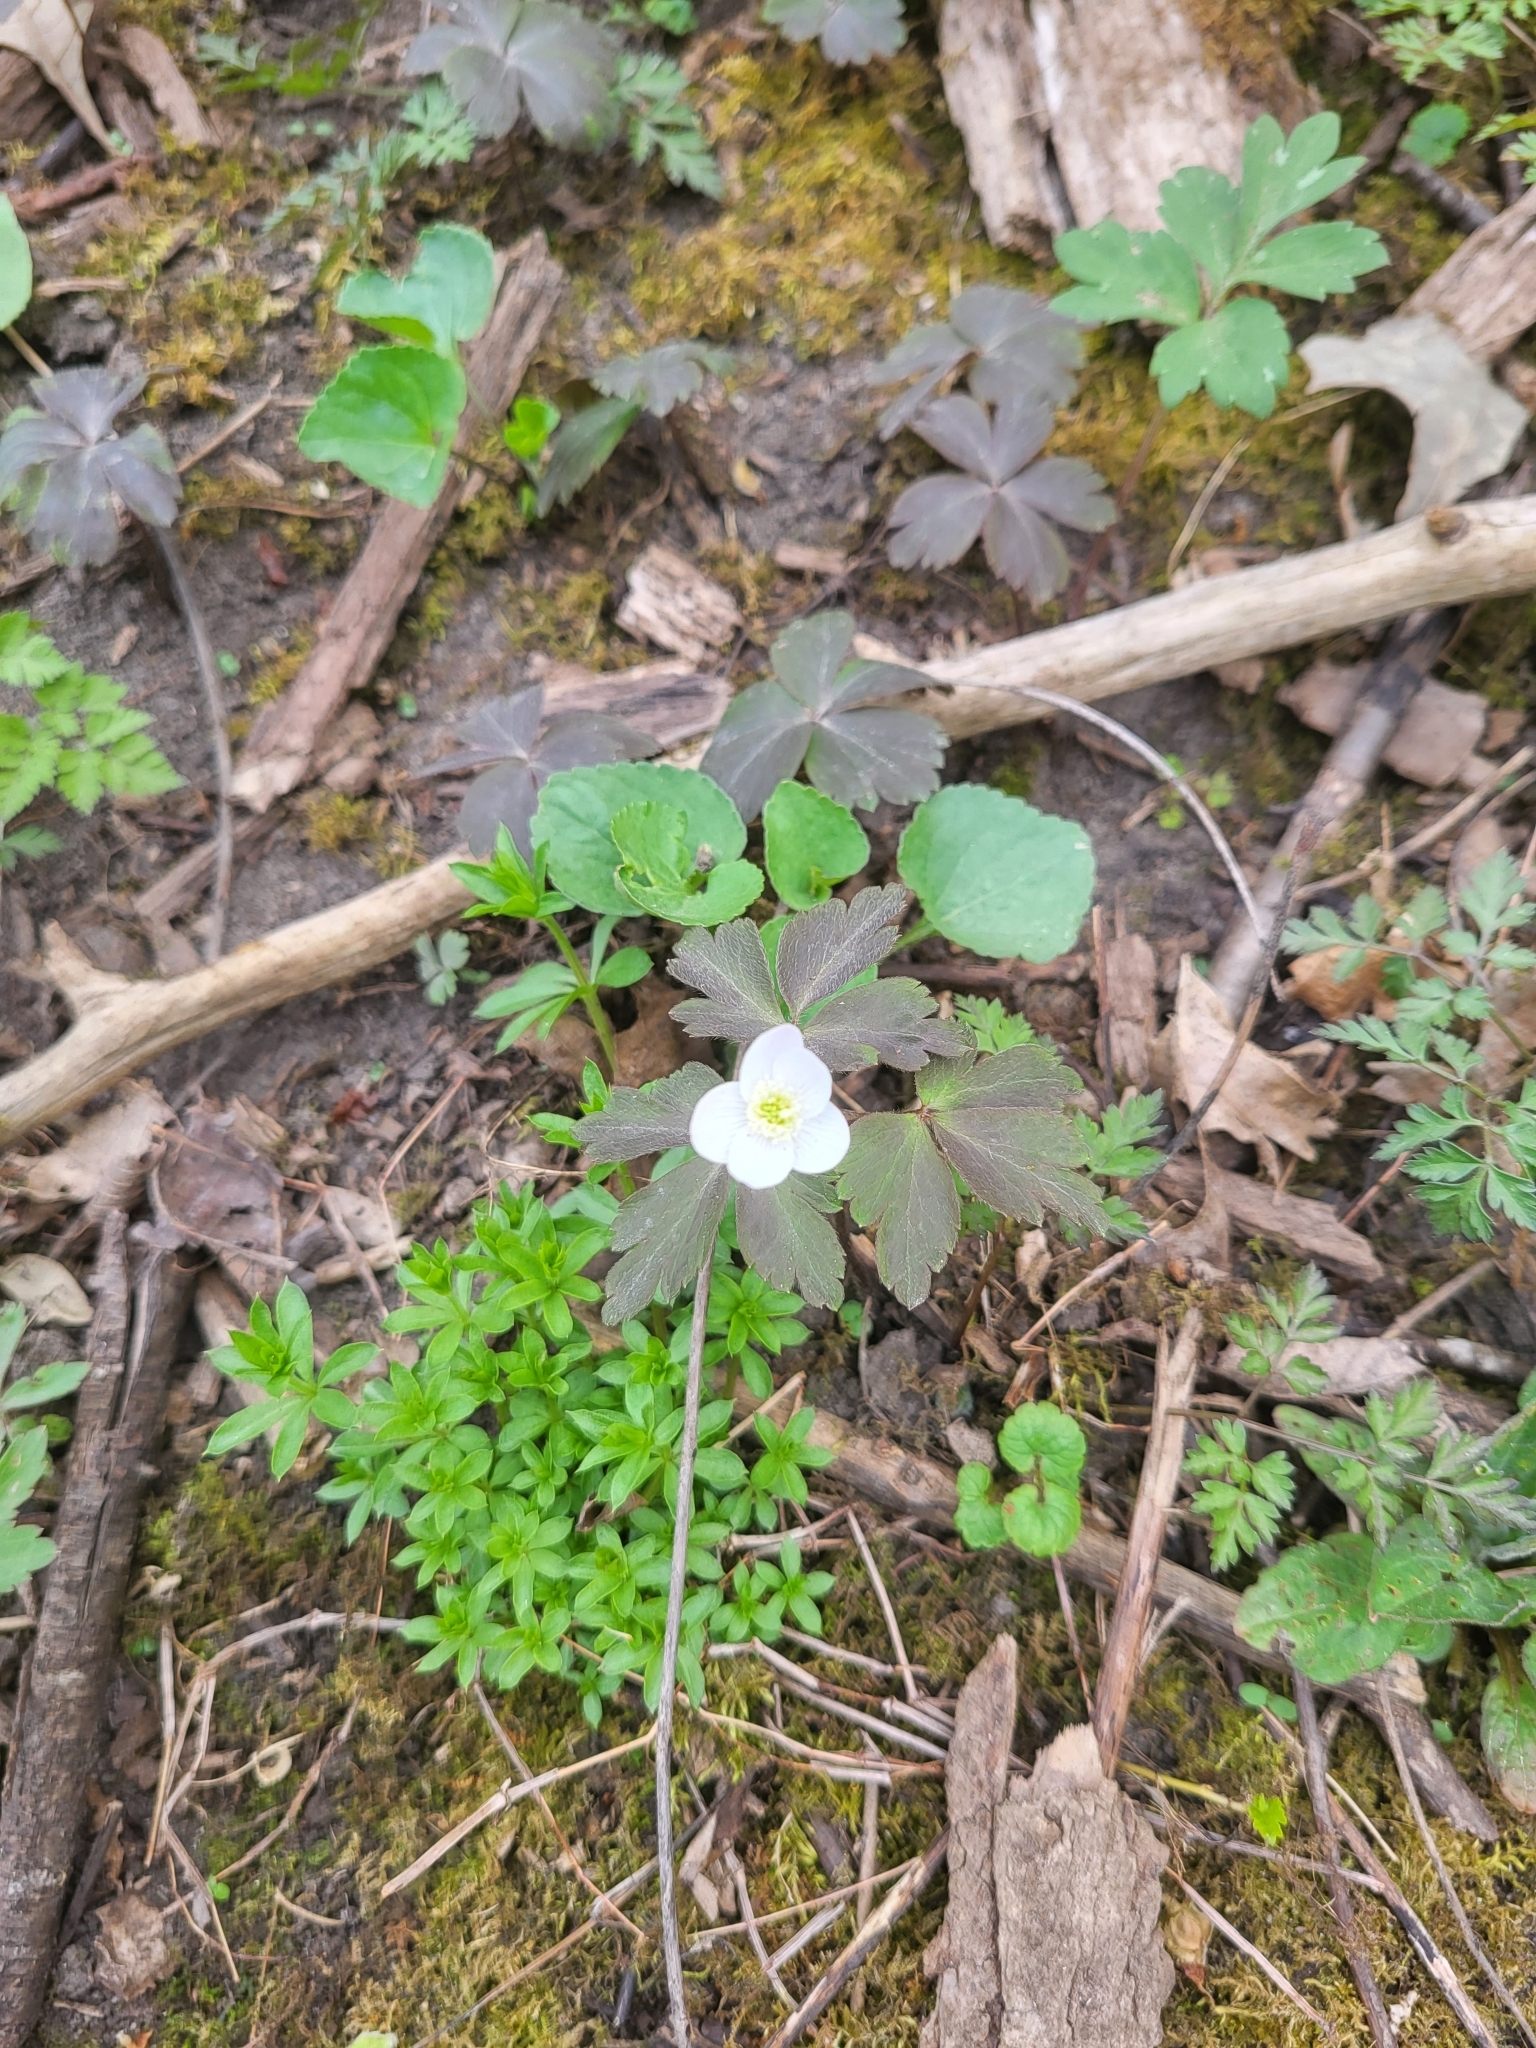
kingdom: Plantae
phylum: Tracheophyta
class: Magnoliopsida
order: Ranunculales
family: Ranunculaceae
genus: Anemone
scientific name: Anemone quinquefolia
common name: Wood anemone
